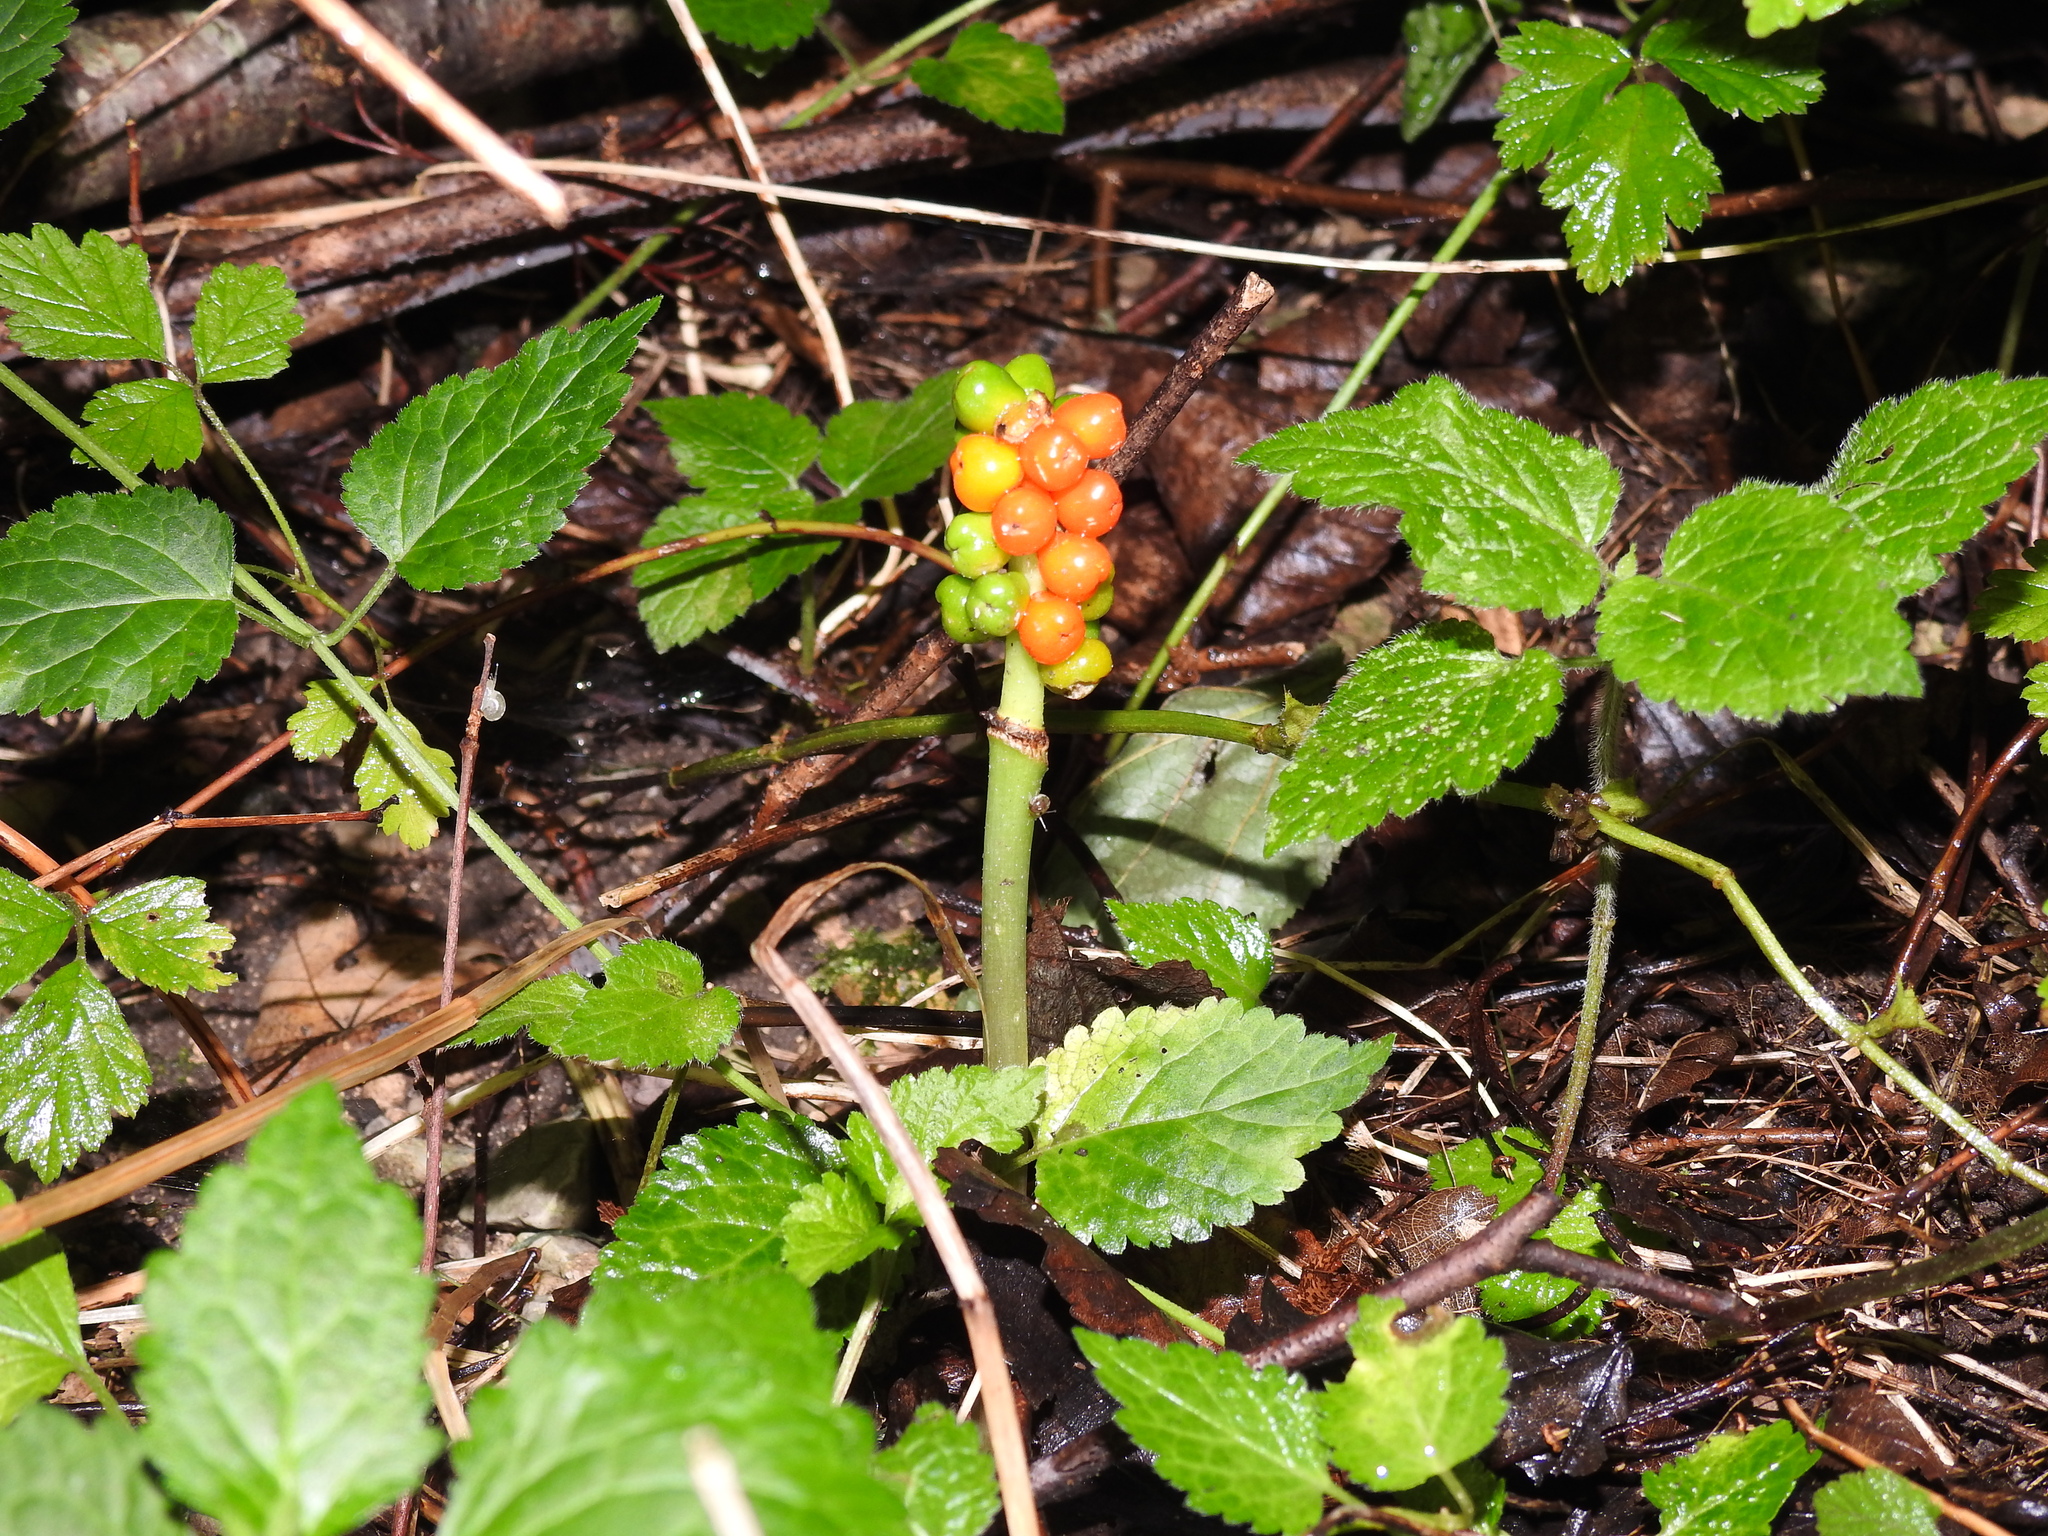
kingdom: Plantae
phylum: Tracheophyta
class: Liliopsida
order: Alismatales
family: Araceae
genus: Arum
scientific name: Arum maculatum
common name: Lords-and-ladies
